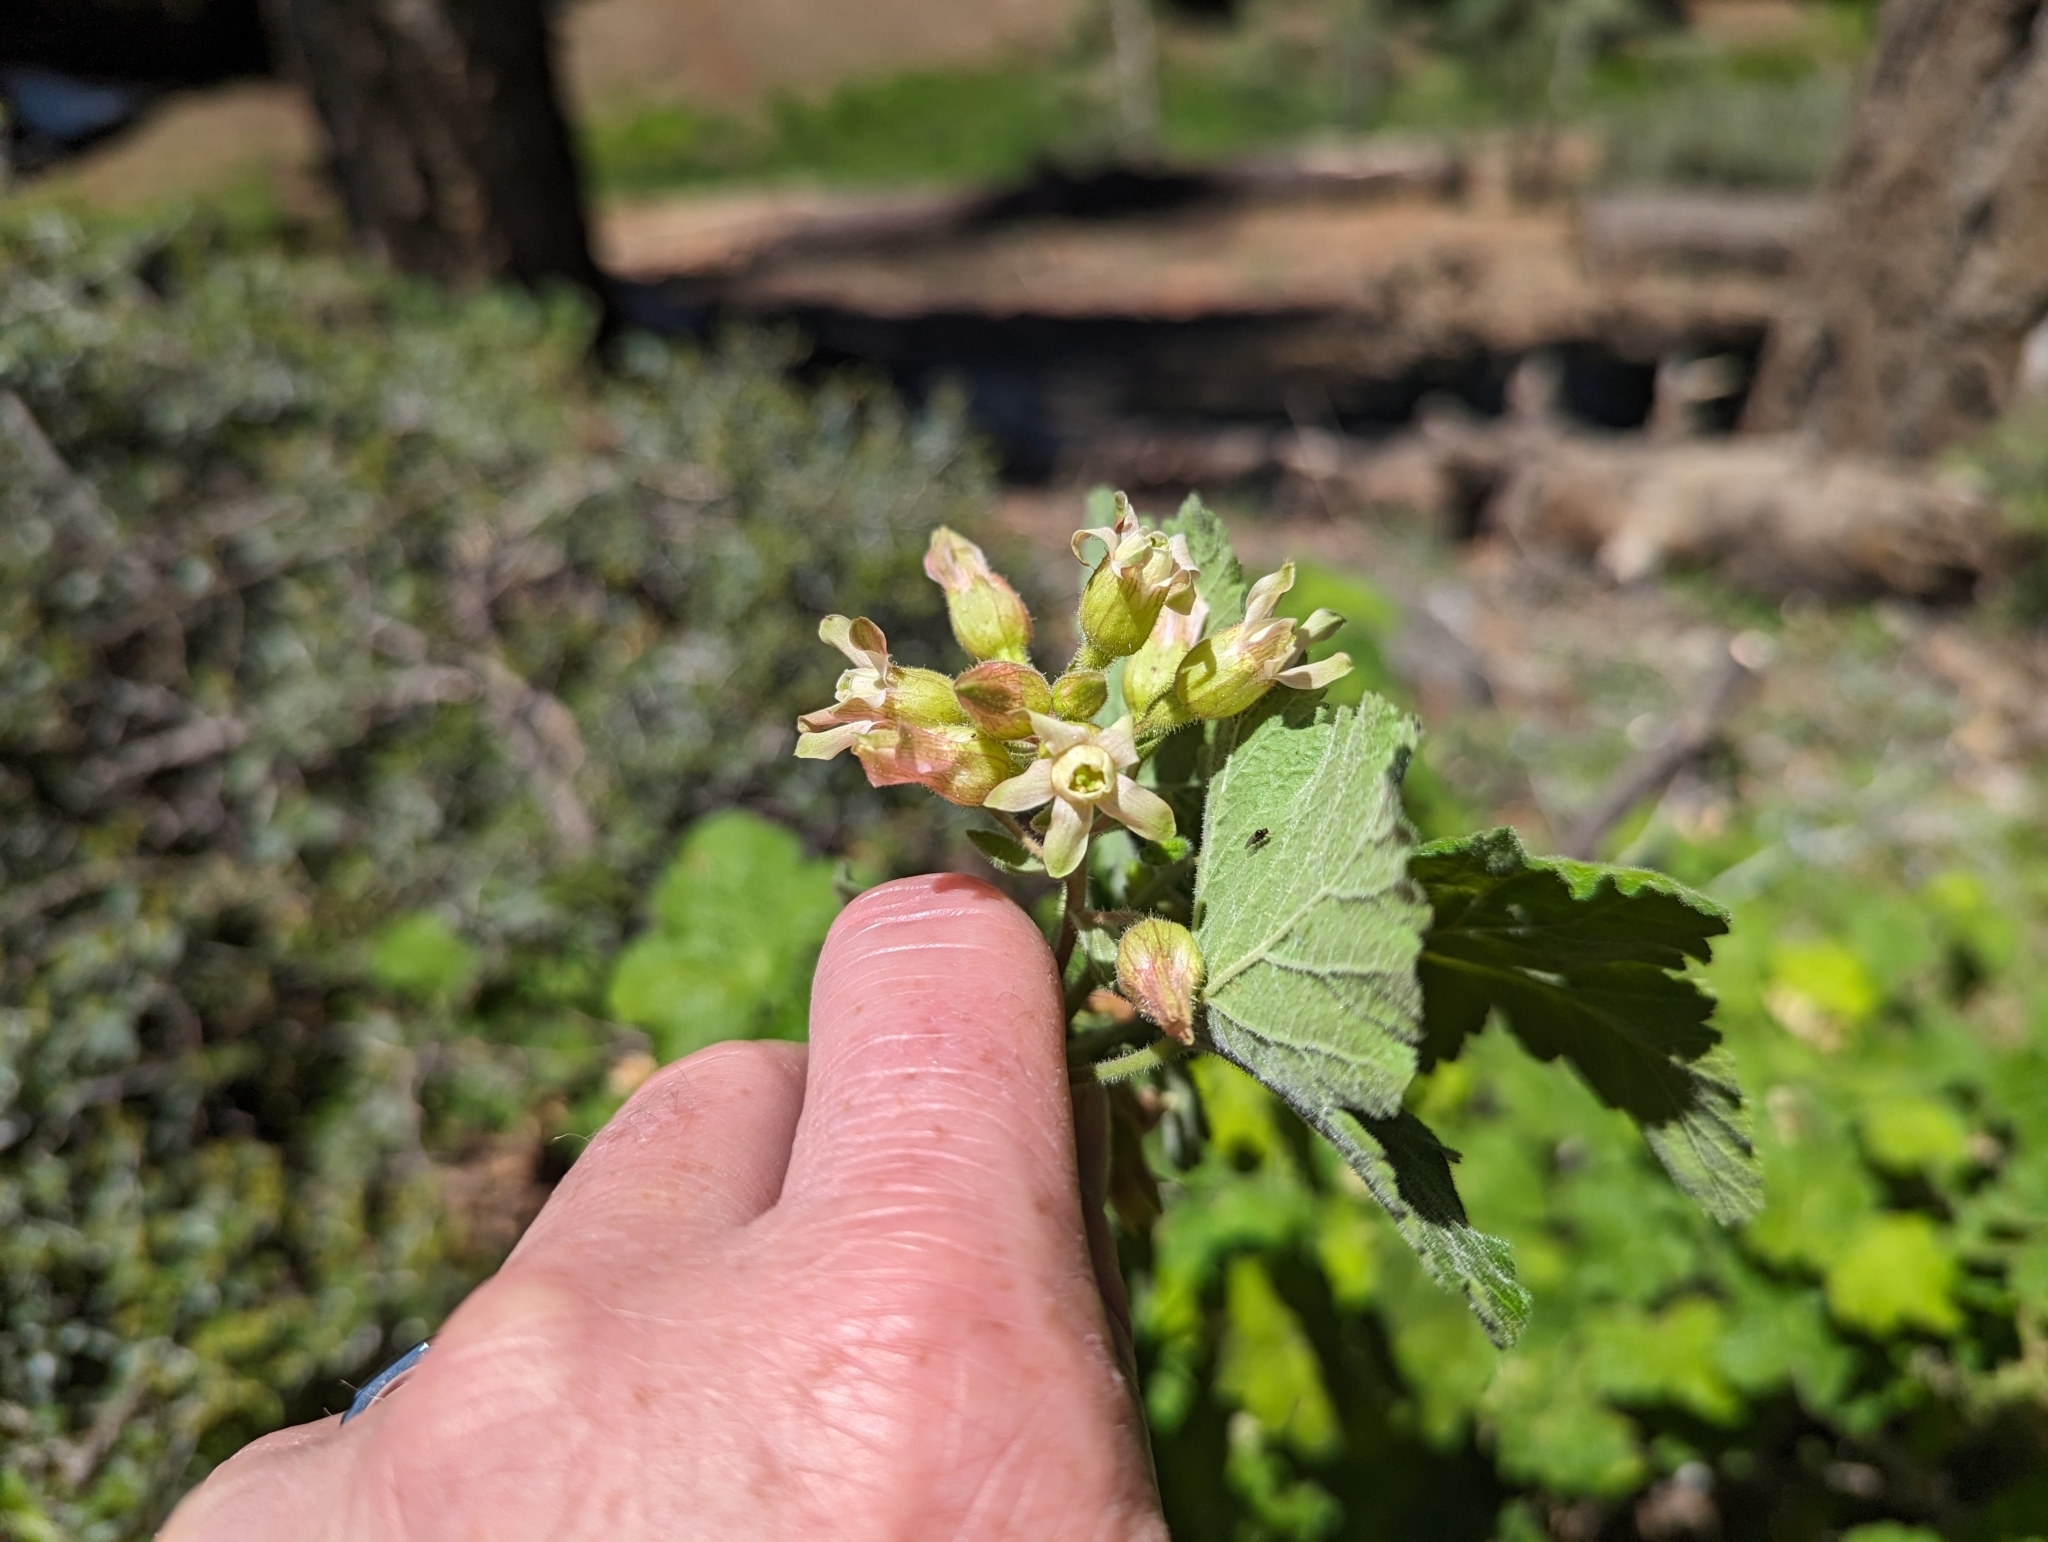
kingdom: Plantae
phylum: Tracheophyta
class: Magnoliopsida
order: Saxifragales
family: Grossulariaceae
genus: Ribes
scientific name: Ribes viscosissimum
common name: Sticky currant
